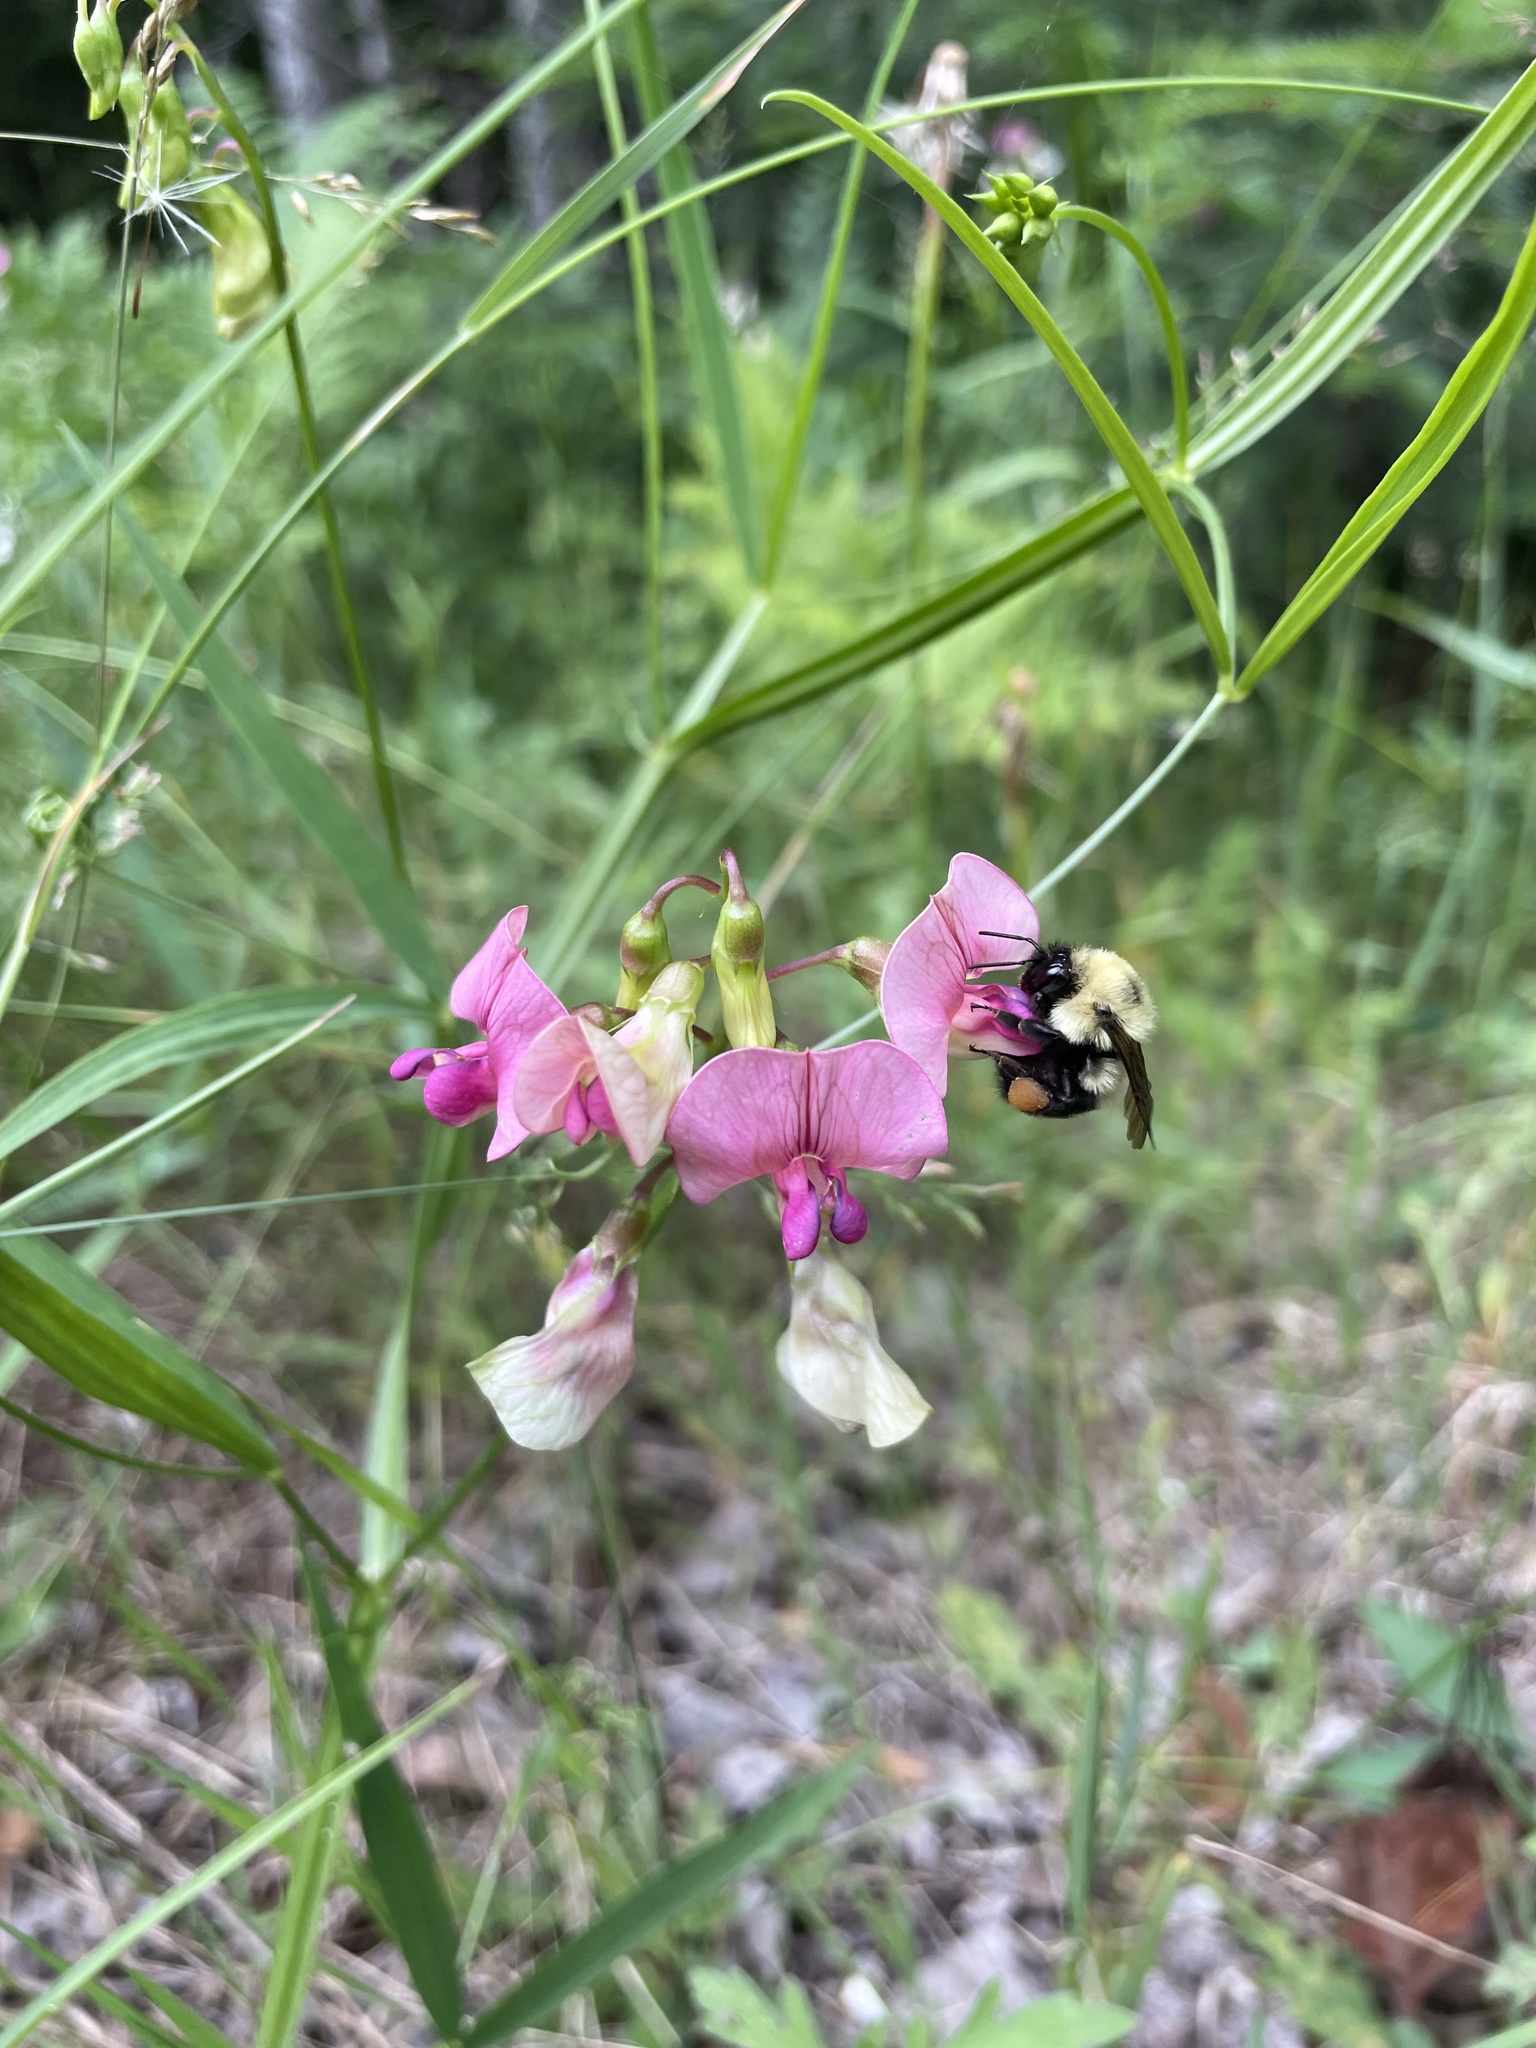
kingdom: Animalia
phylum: Arthropoda
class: Insecta
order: Hymenoptera
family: Apidae
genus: Bombus
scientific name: Bombus bimaculatus
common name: Two-spotted bumble bee
